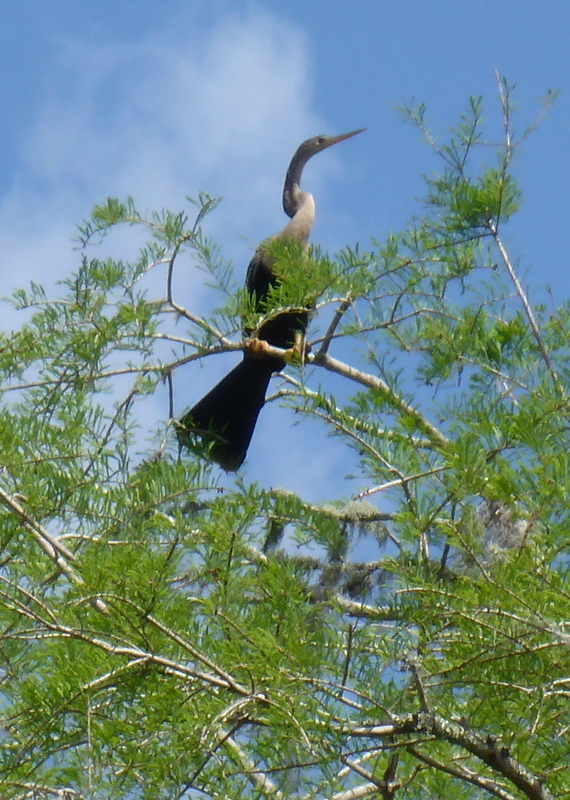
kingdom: Animalia
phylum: Chordata
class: Aves
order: Suliformes
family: Anhingidae
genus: Anhinga
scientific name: Anhinga anhinga
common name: Anhinga
